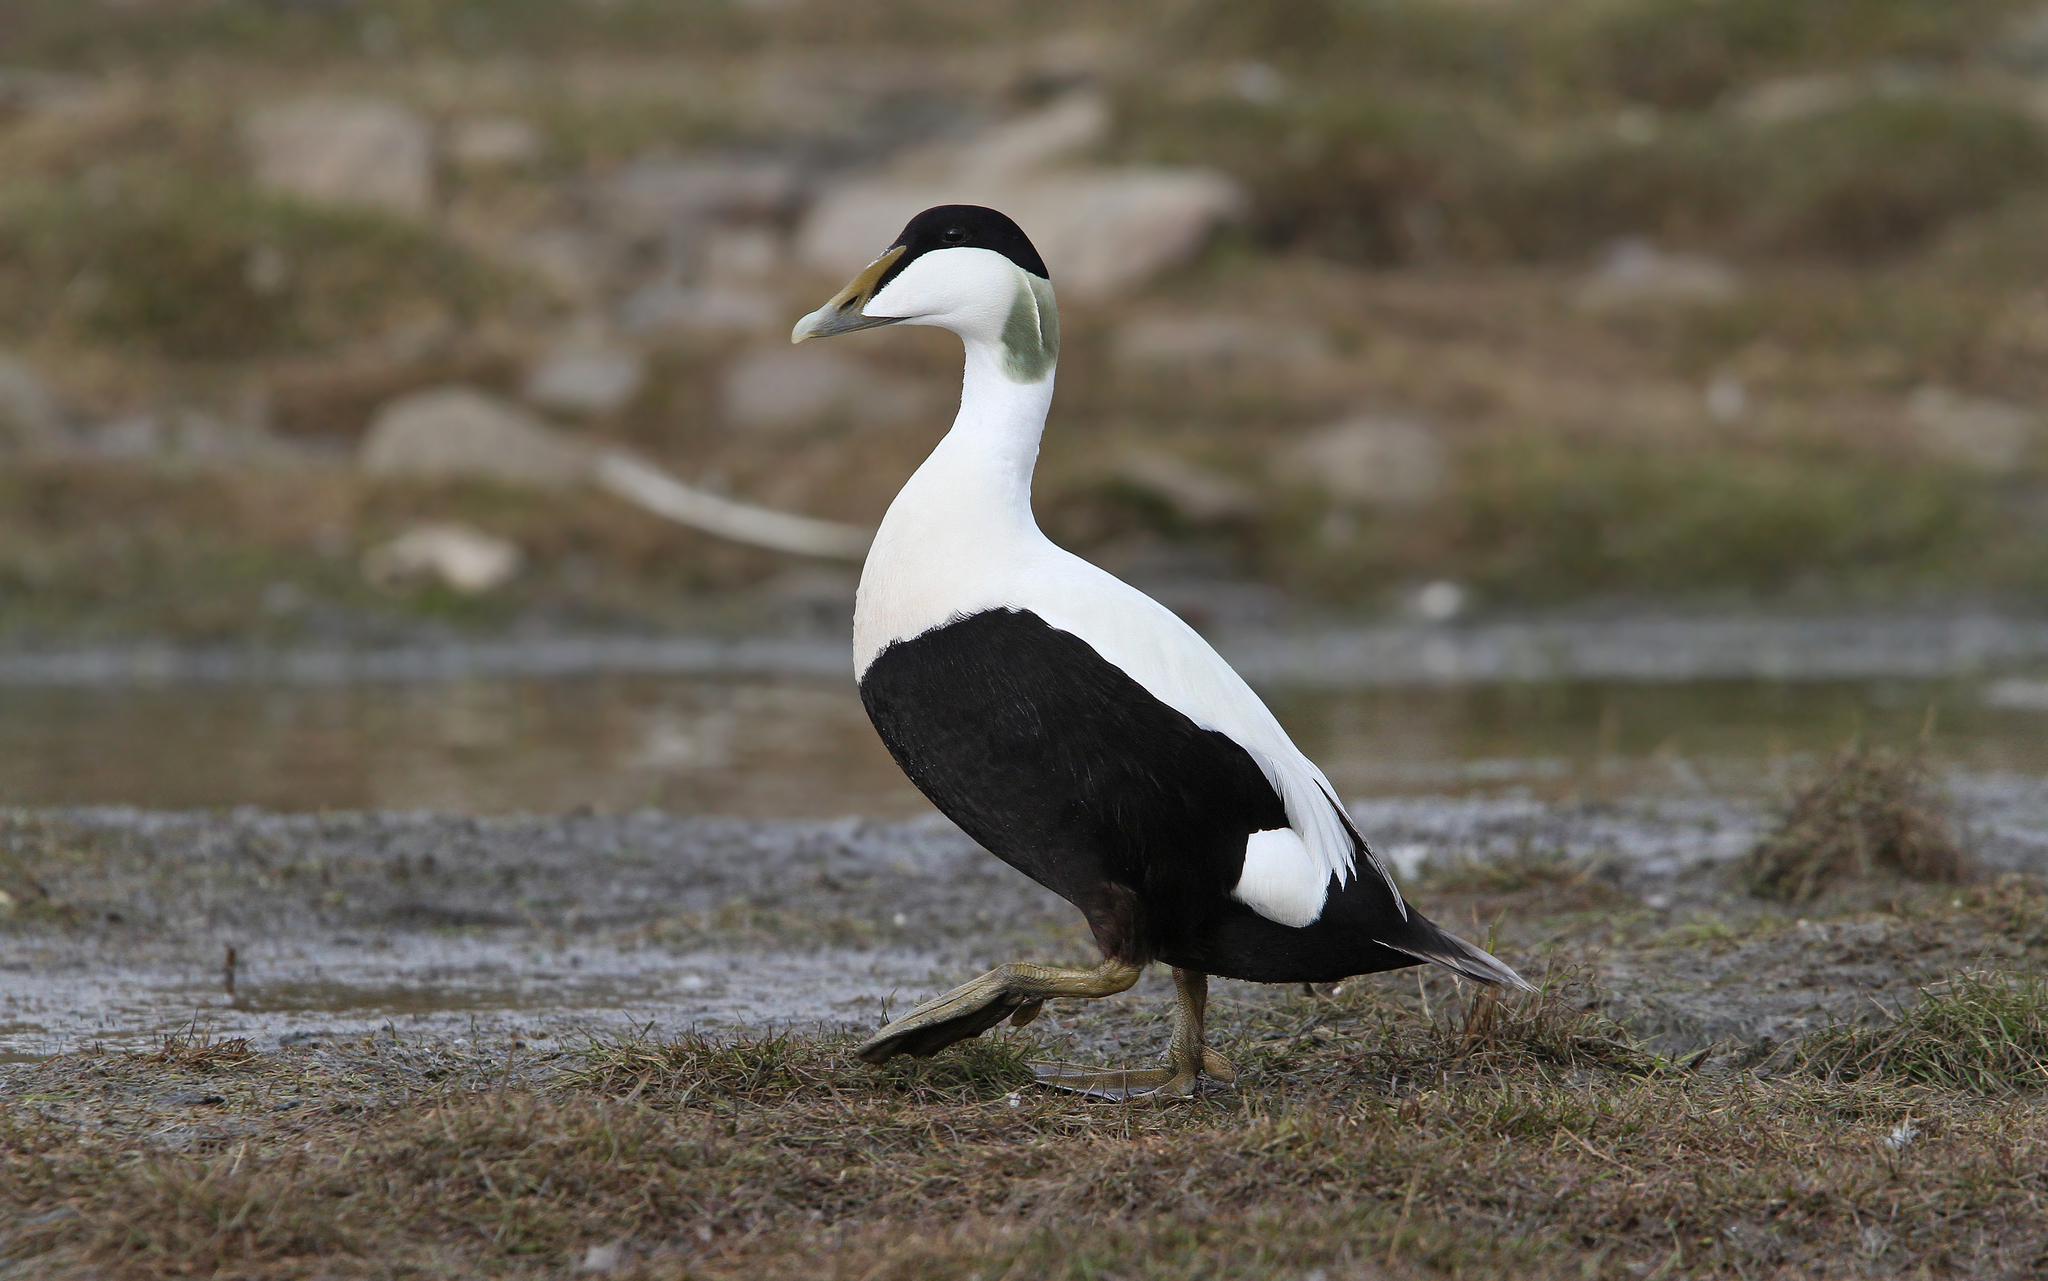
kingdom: Animalia
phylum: Chordata
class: Aves
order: Anseriformes
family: Anatidae
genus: Somateria
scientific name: Somateria mollissima
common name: Common eider
